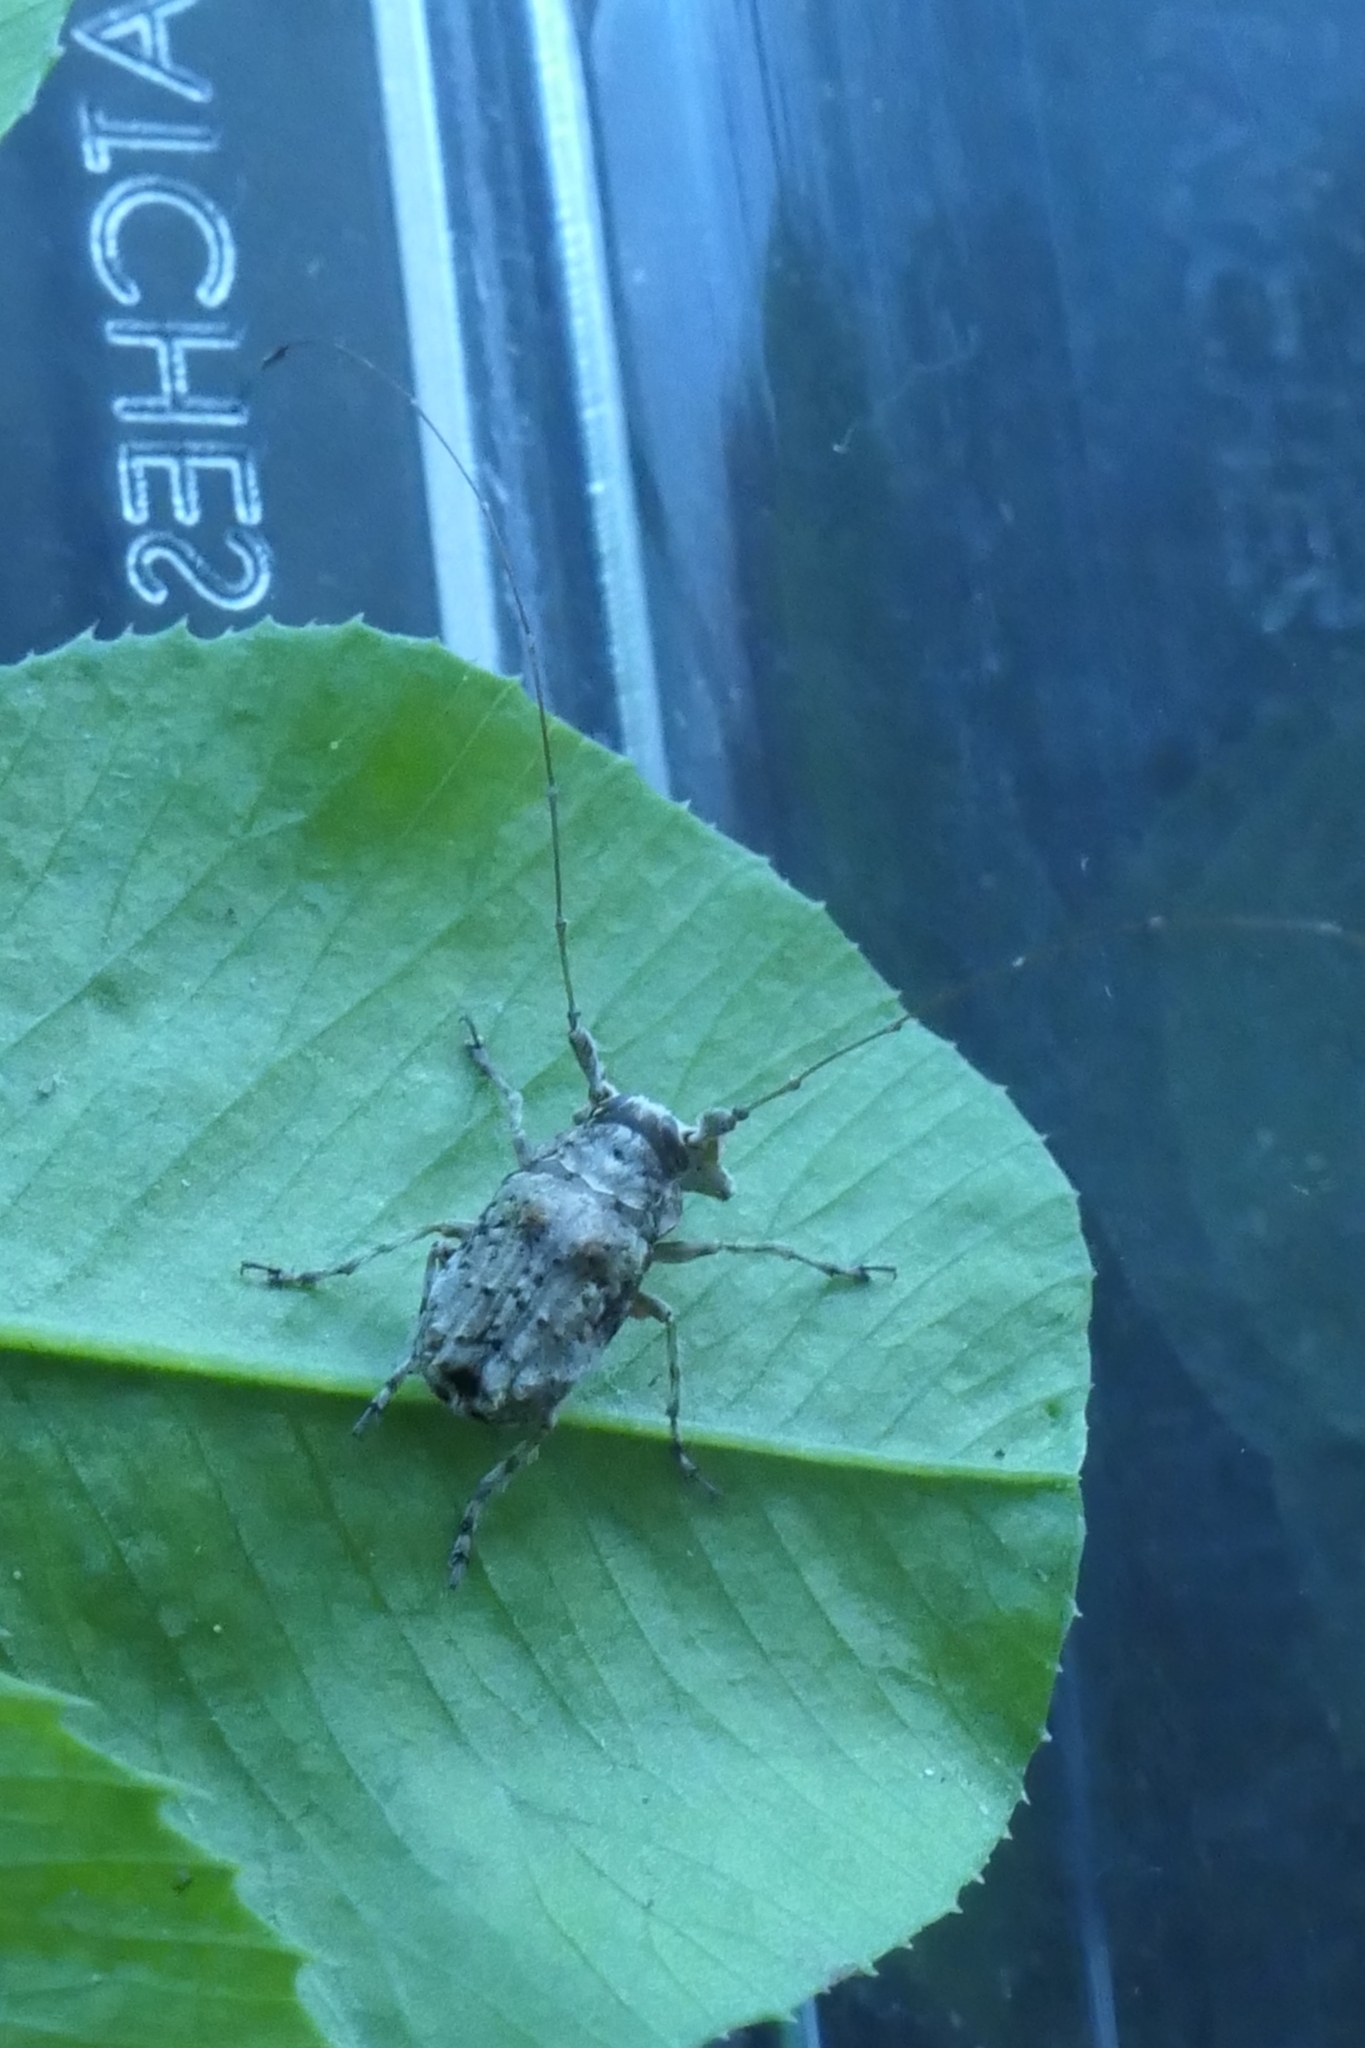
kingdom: Animalia
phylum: Arthropoda
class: Insecta
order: Coleoptera
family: Anthribidae
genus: Hoherius
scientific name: Hoherius
